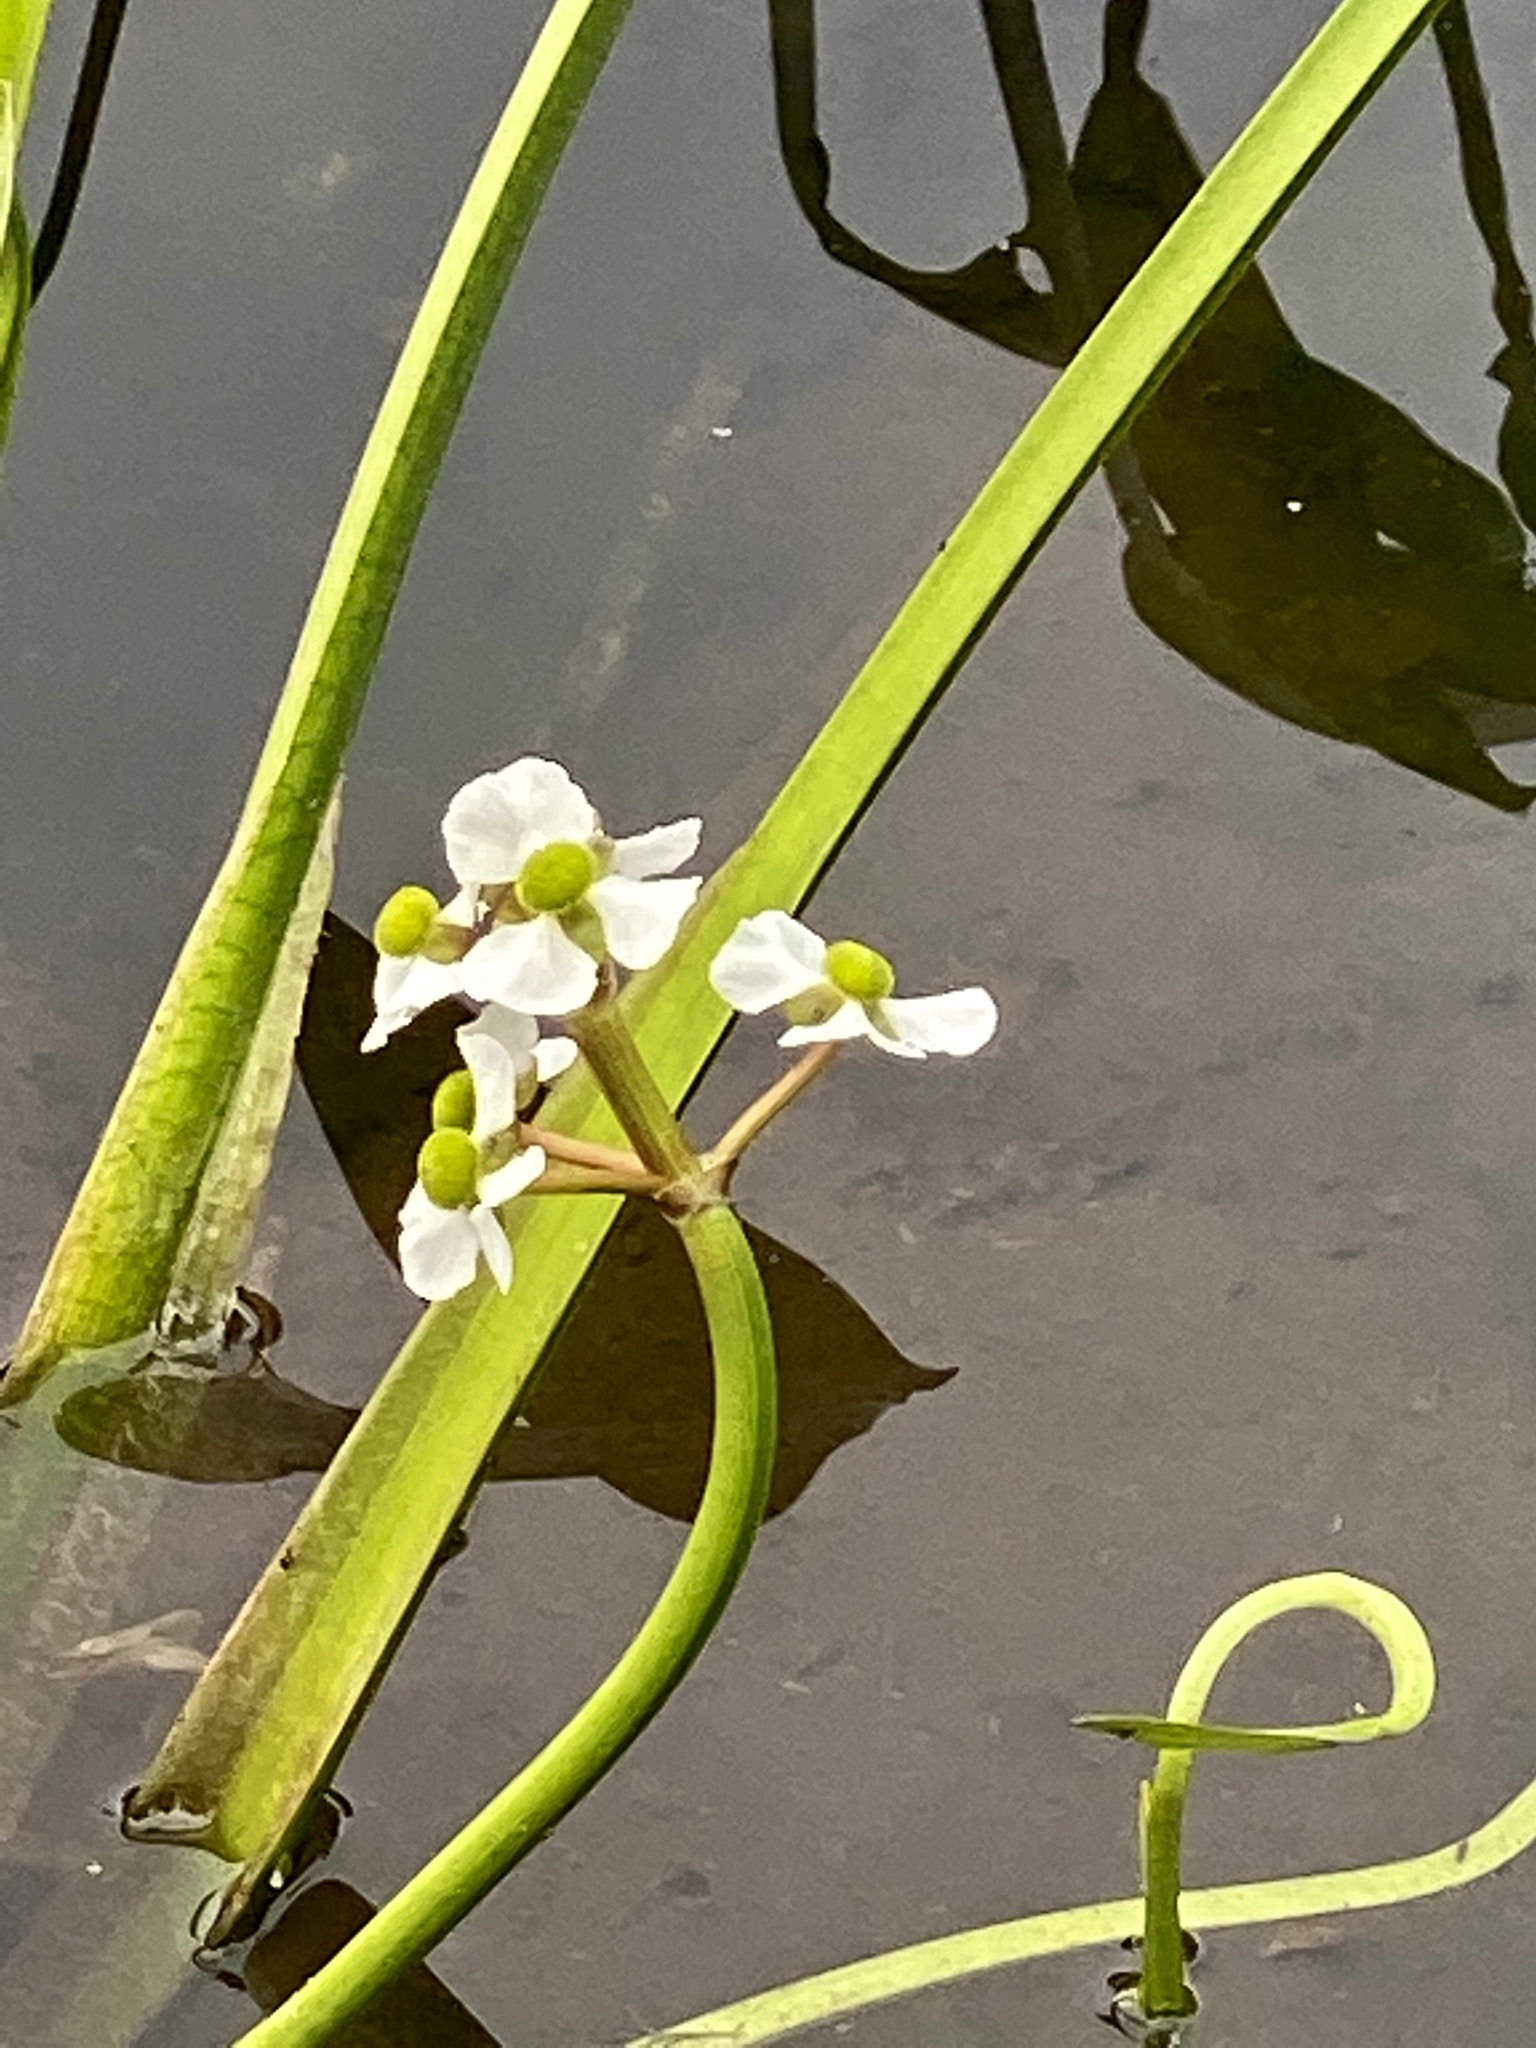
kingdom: Plantae
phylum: Tracheophyta
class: Liliopsida
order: Alismatales
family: Alismataceae
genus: Sagittaria
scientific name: Sagittaria platyphylla
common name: Broad-leaf arrowhead
